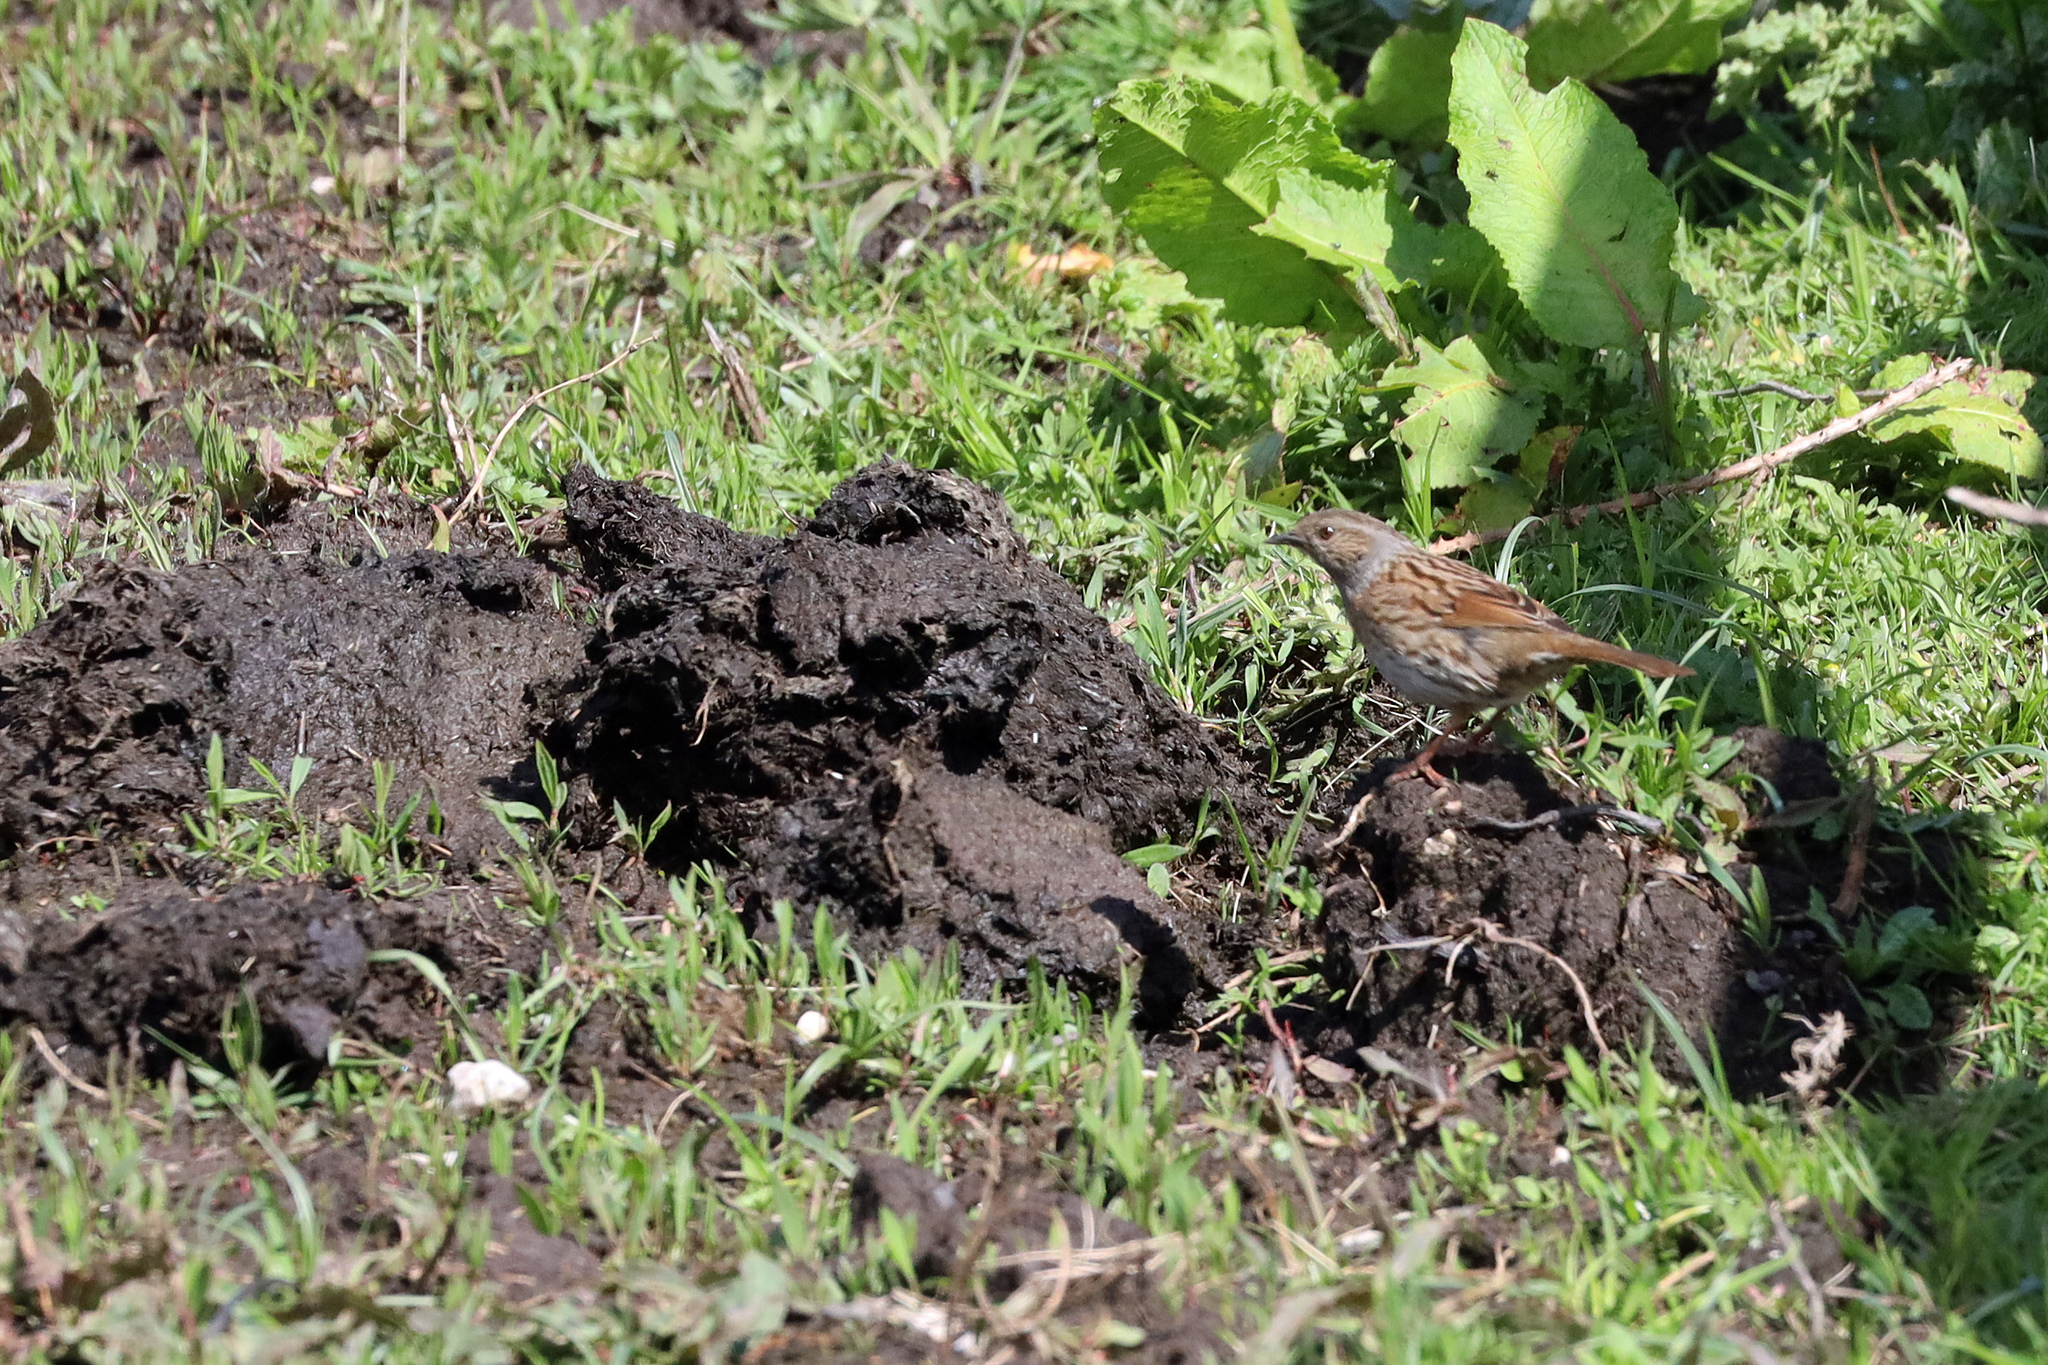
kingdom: Animalia
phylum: Chordata
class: Aves
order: Passeriformes
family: Prunellidae
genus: Prunella
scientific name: Prunella modularis
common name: Dunnock
